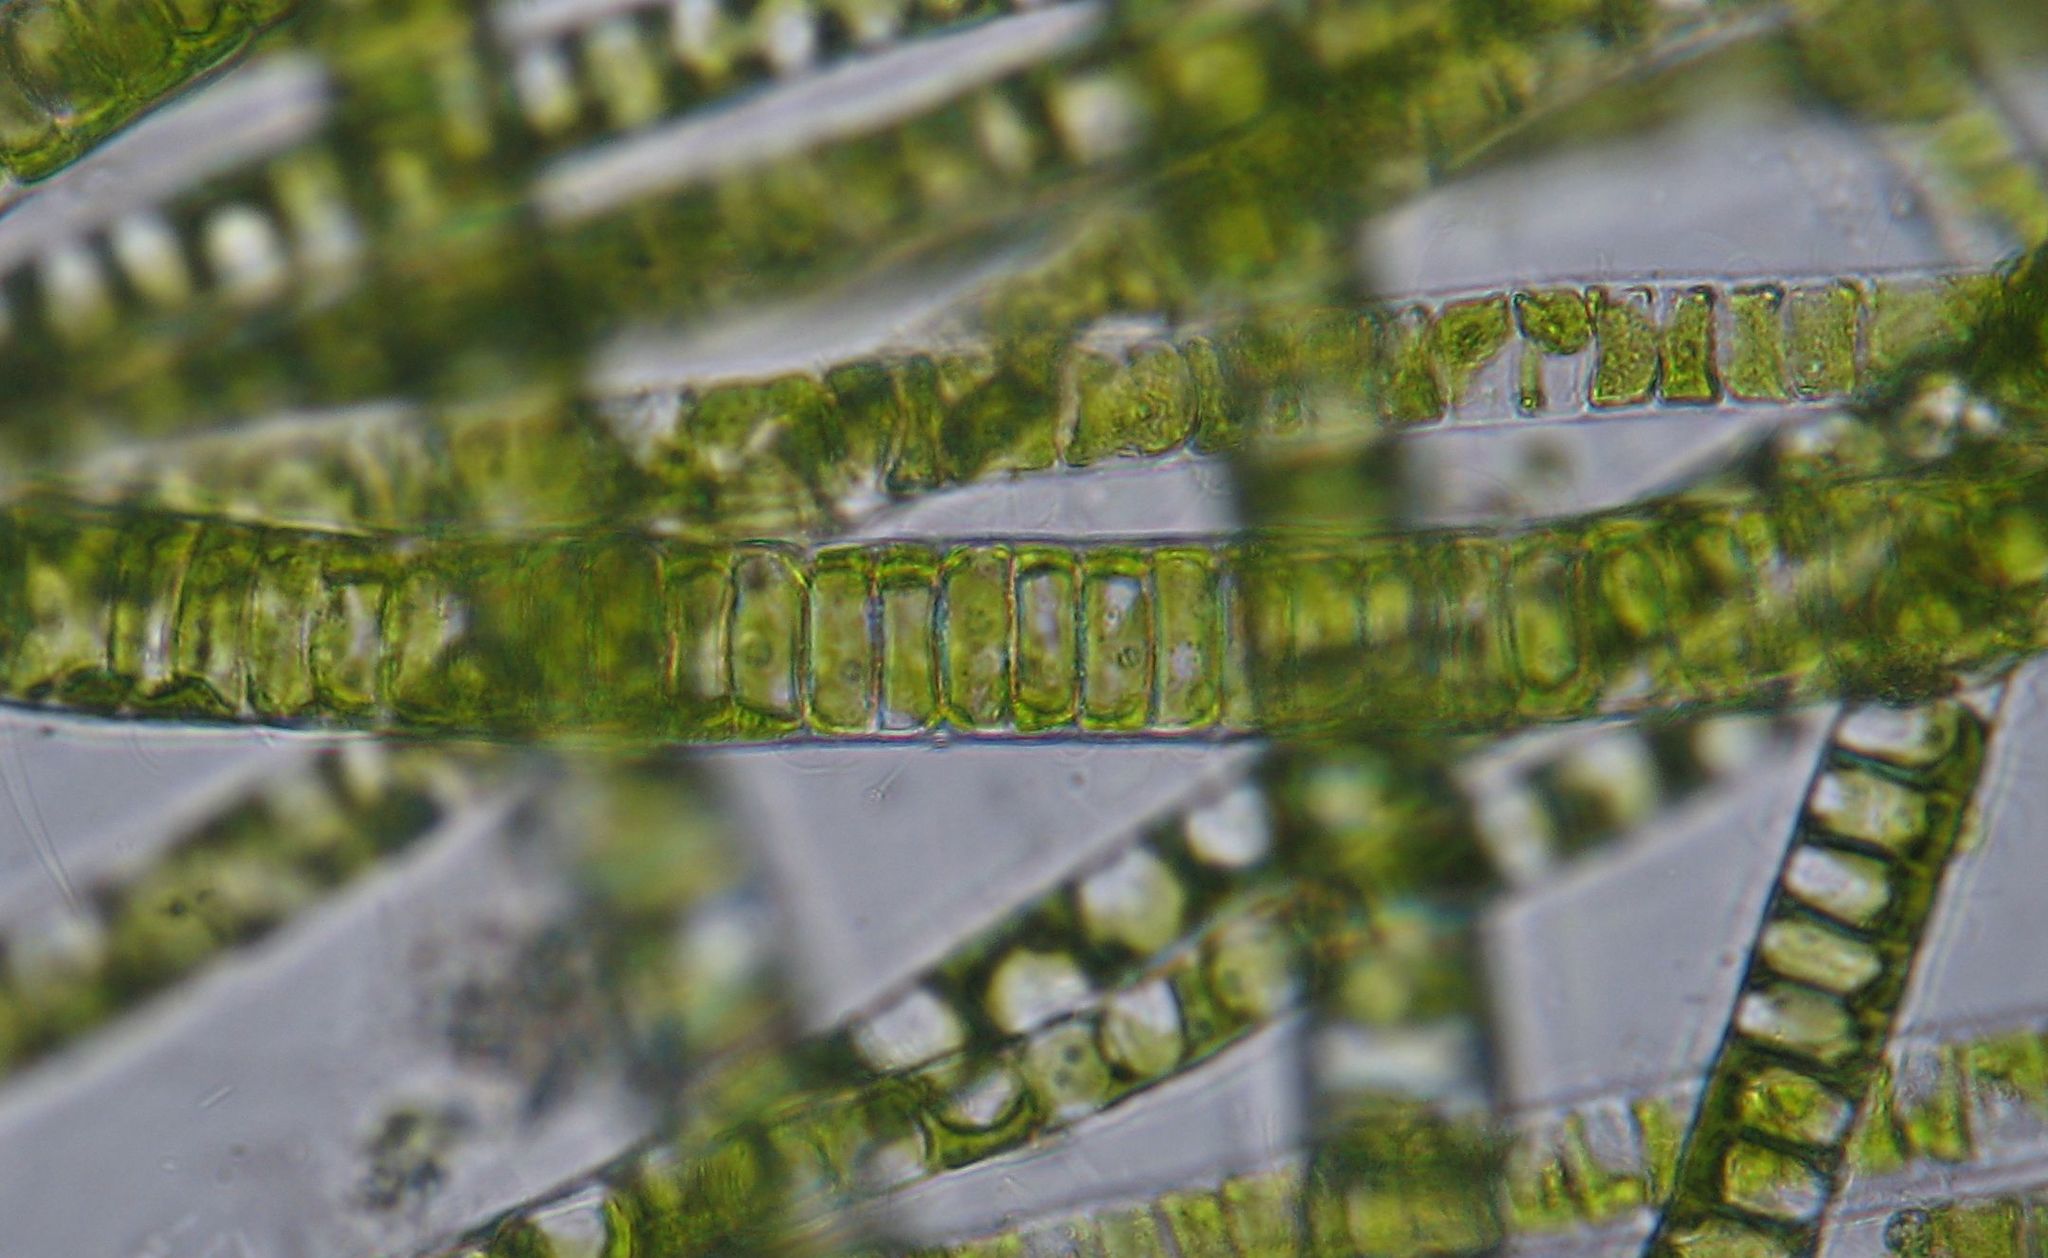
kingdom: Plantae
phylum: Chlorophyta
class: Ulvophyceae
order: Ulotrichales
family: Ulotrichaceae
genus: Ulothrix
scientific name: Ulothrix zonata
